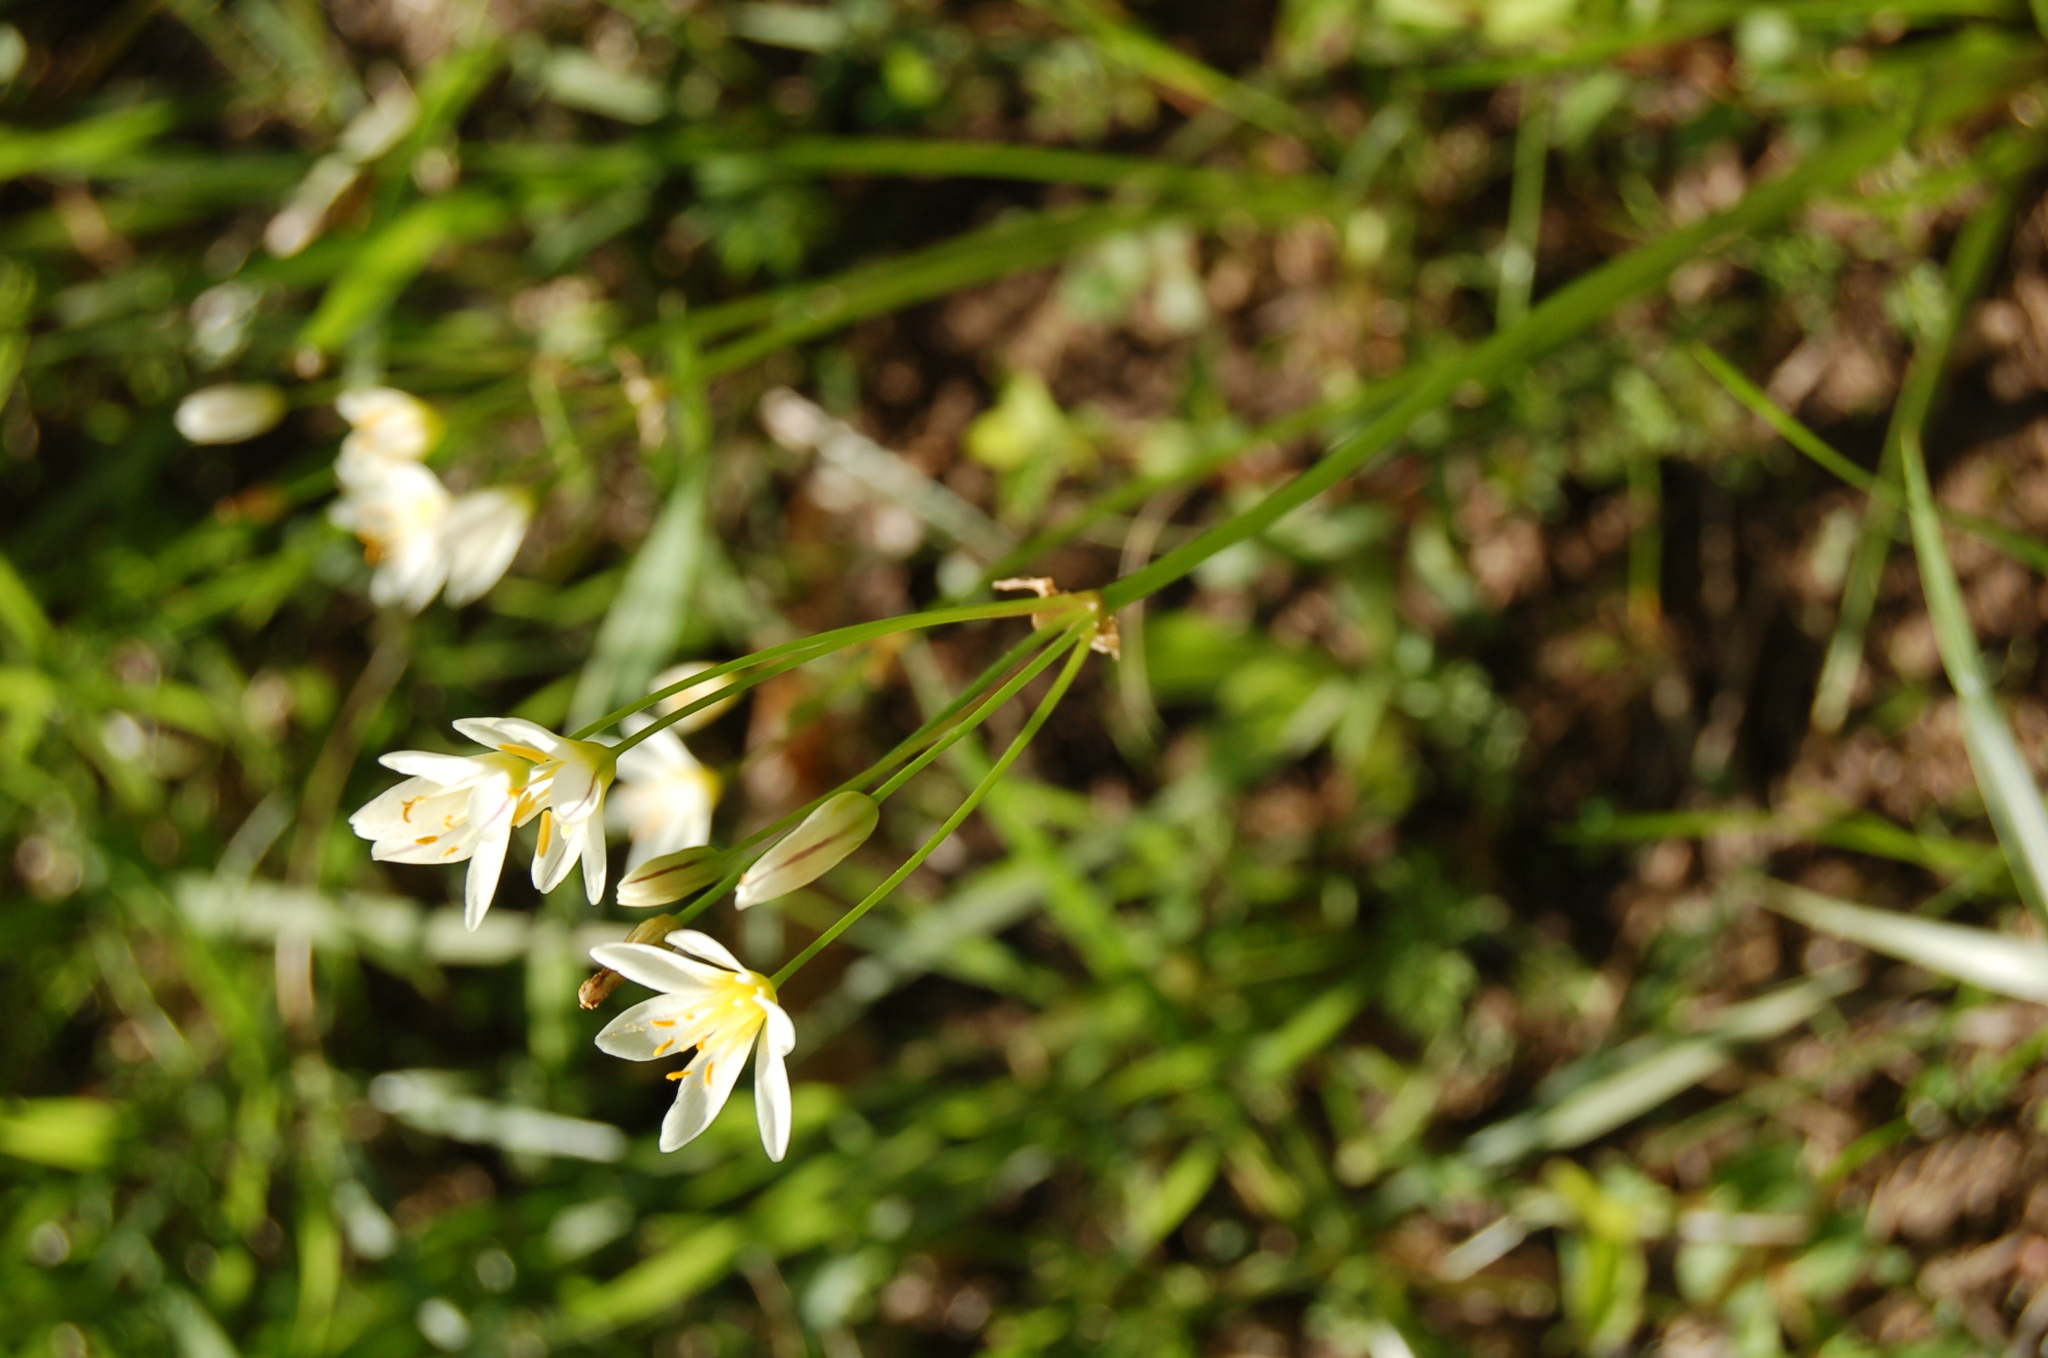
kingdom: Plantae
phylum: Tracheophyta
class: Liliopsida
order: Asparagales
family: Amaryllidaceae
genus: Nothoscordum
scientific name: Nothoscordum bivalve
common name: Crow-poison
